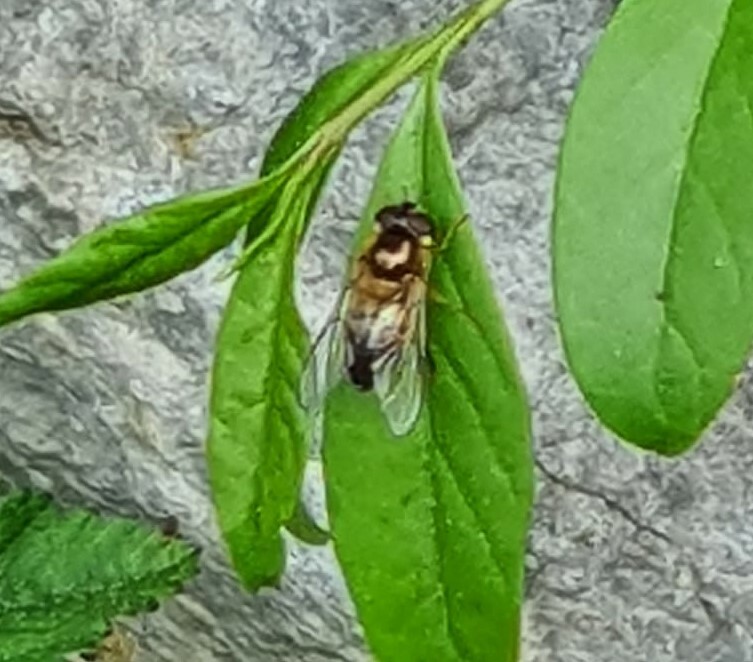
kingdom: Animalia
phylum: Arthropoda
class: Insecta
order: Diptera
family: Syrphidae
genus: Epistrophe
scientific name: Epistrophe eligans
